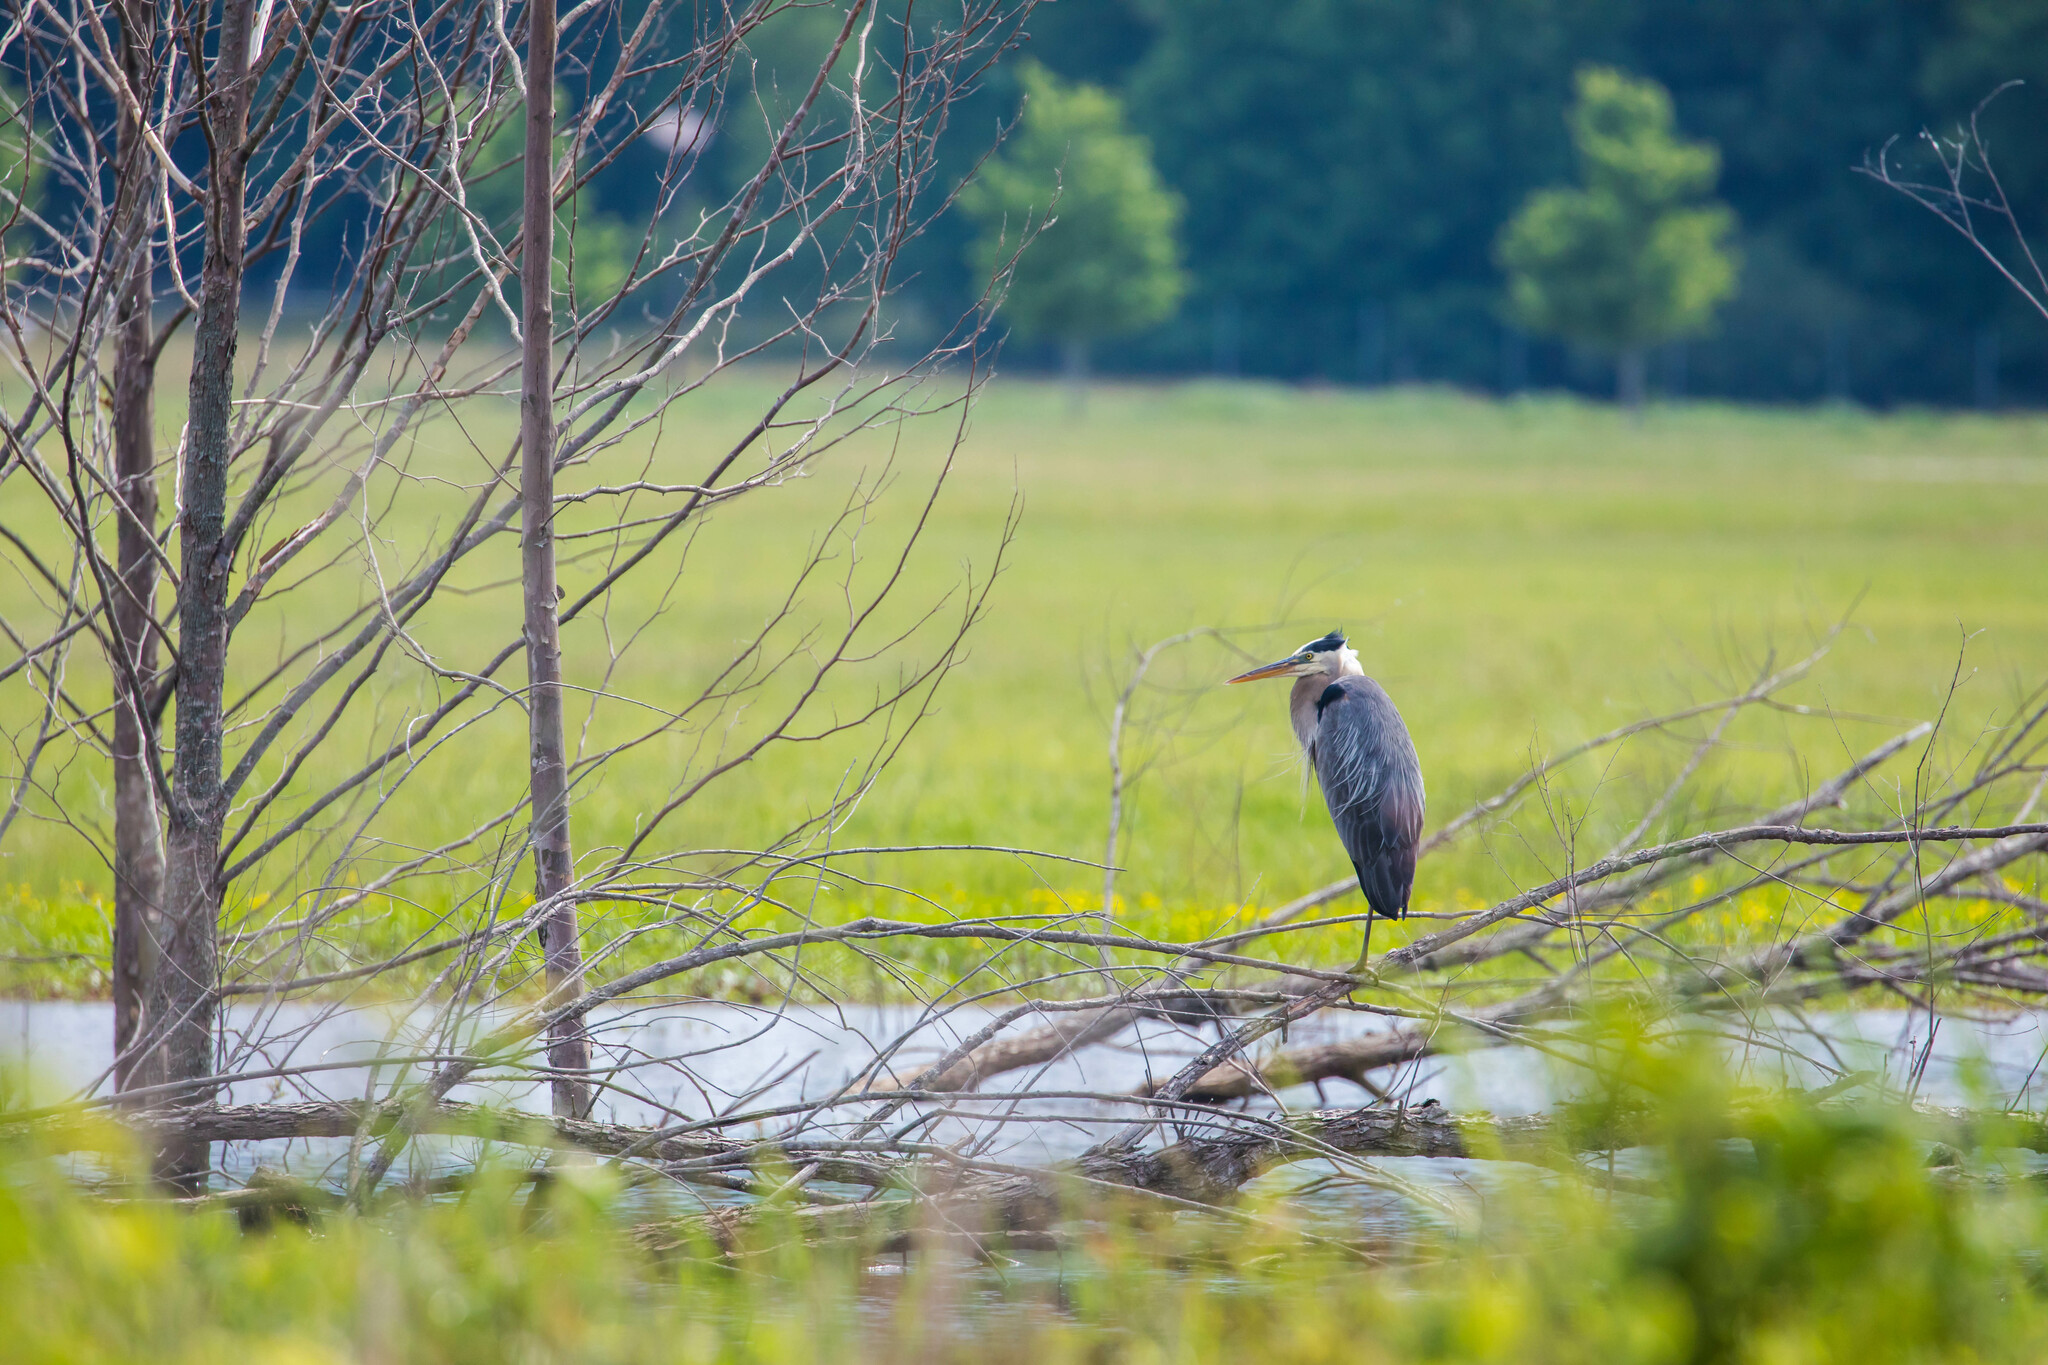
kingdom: Animalia
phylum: Chordata
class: Aves
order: Pelecaniformes
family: Ardeidae
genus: Ardea
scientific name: Ardea herodias
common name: Great blue heron
